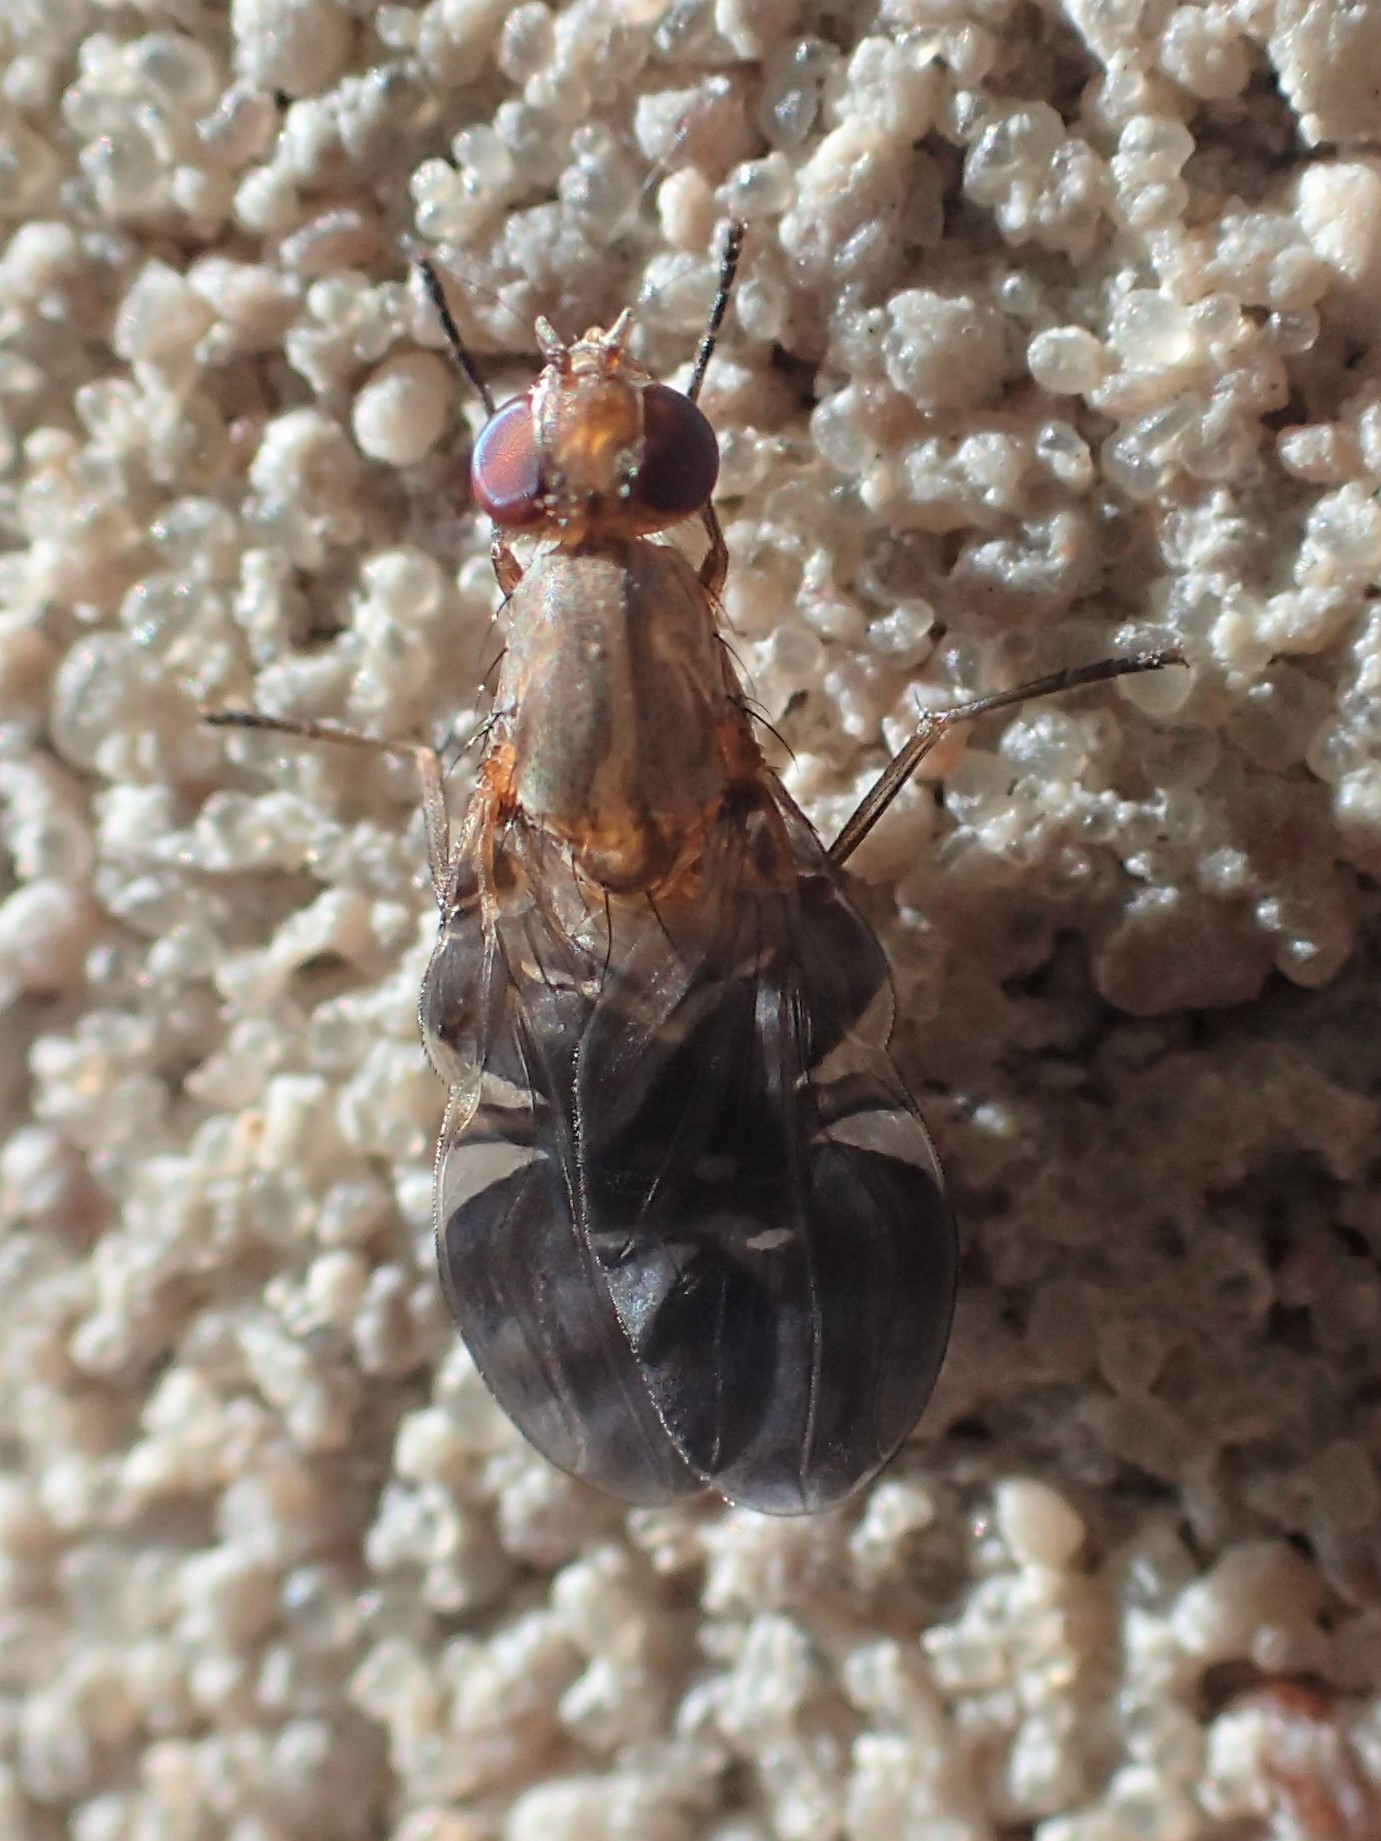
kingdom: Animalia
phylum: Arthropoda
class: Insecta
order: Diptera
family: Ulidiidae
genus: Delphinia
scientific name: Delphinia picta
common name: Common picture-winged fly
